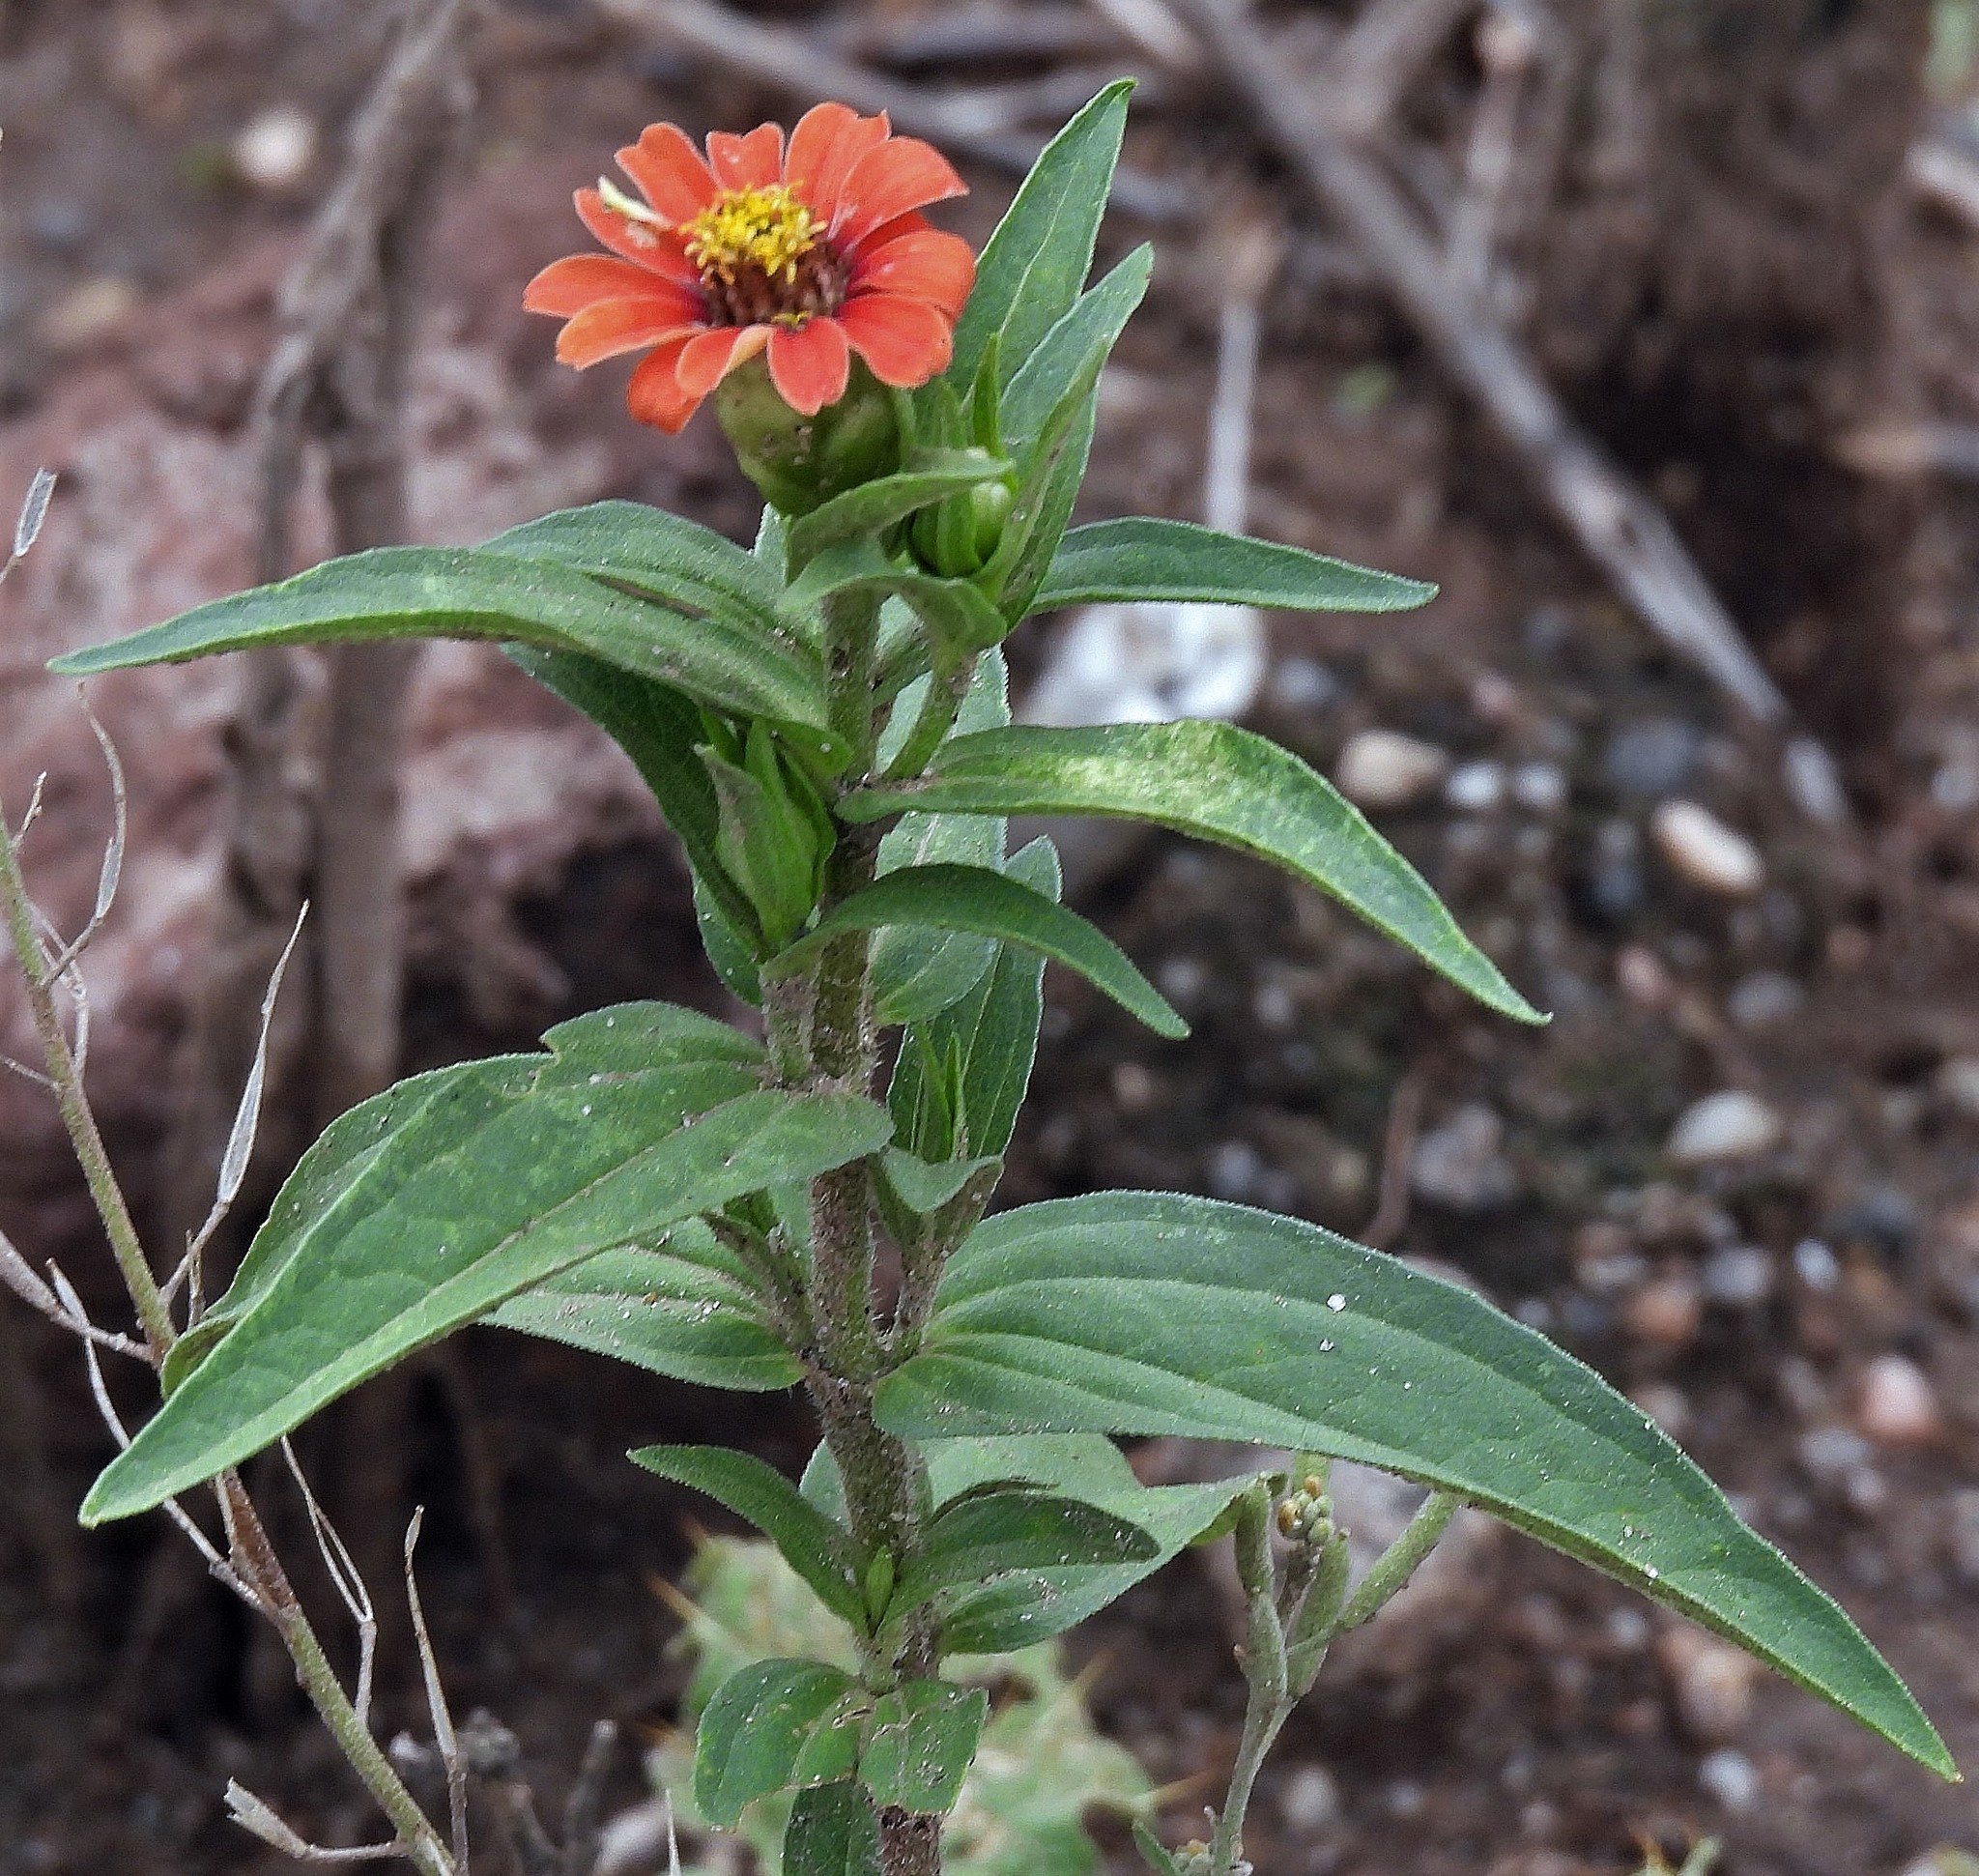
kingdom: Plantae
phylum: Tracheophyta
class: Magnoliopsida
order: Asterales
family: Asteraceae
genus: Zinnia
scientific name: Zinnia peruviana
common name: Peruvian zinnia
